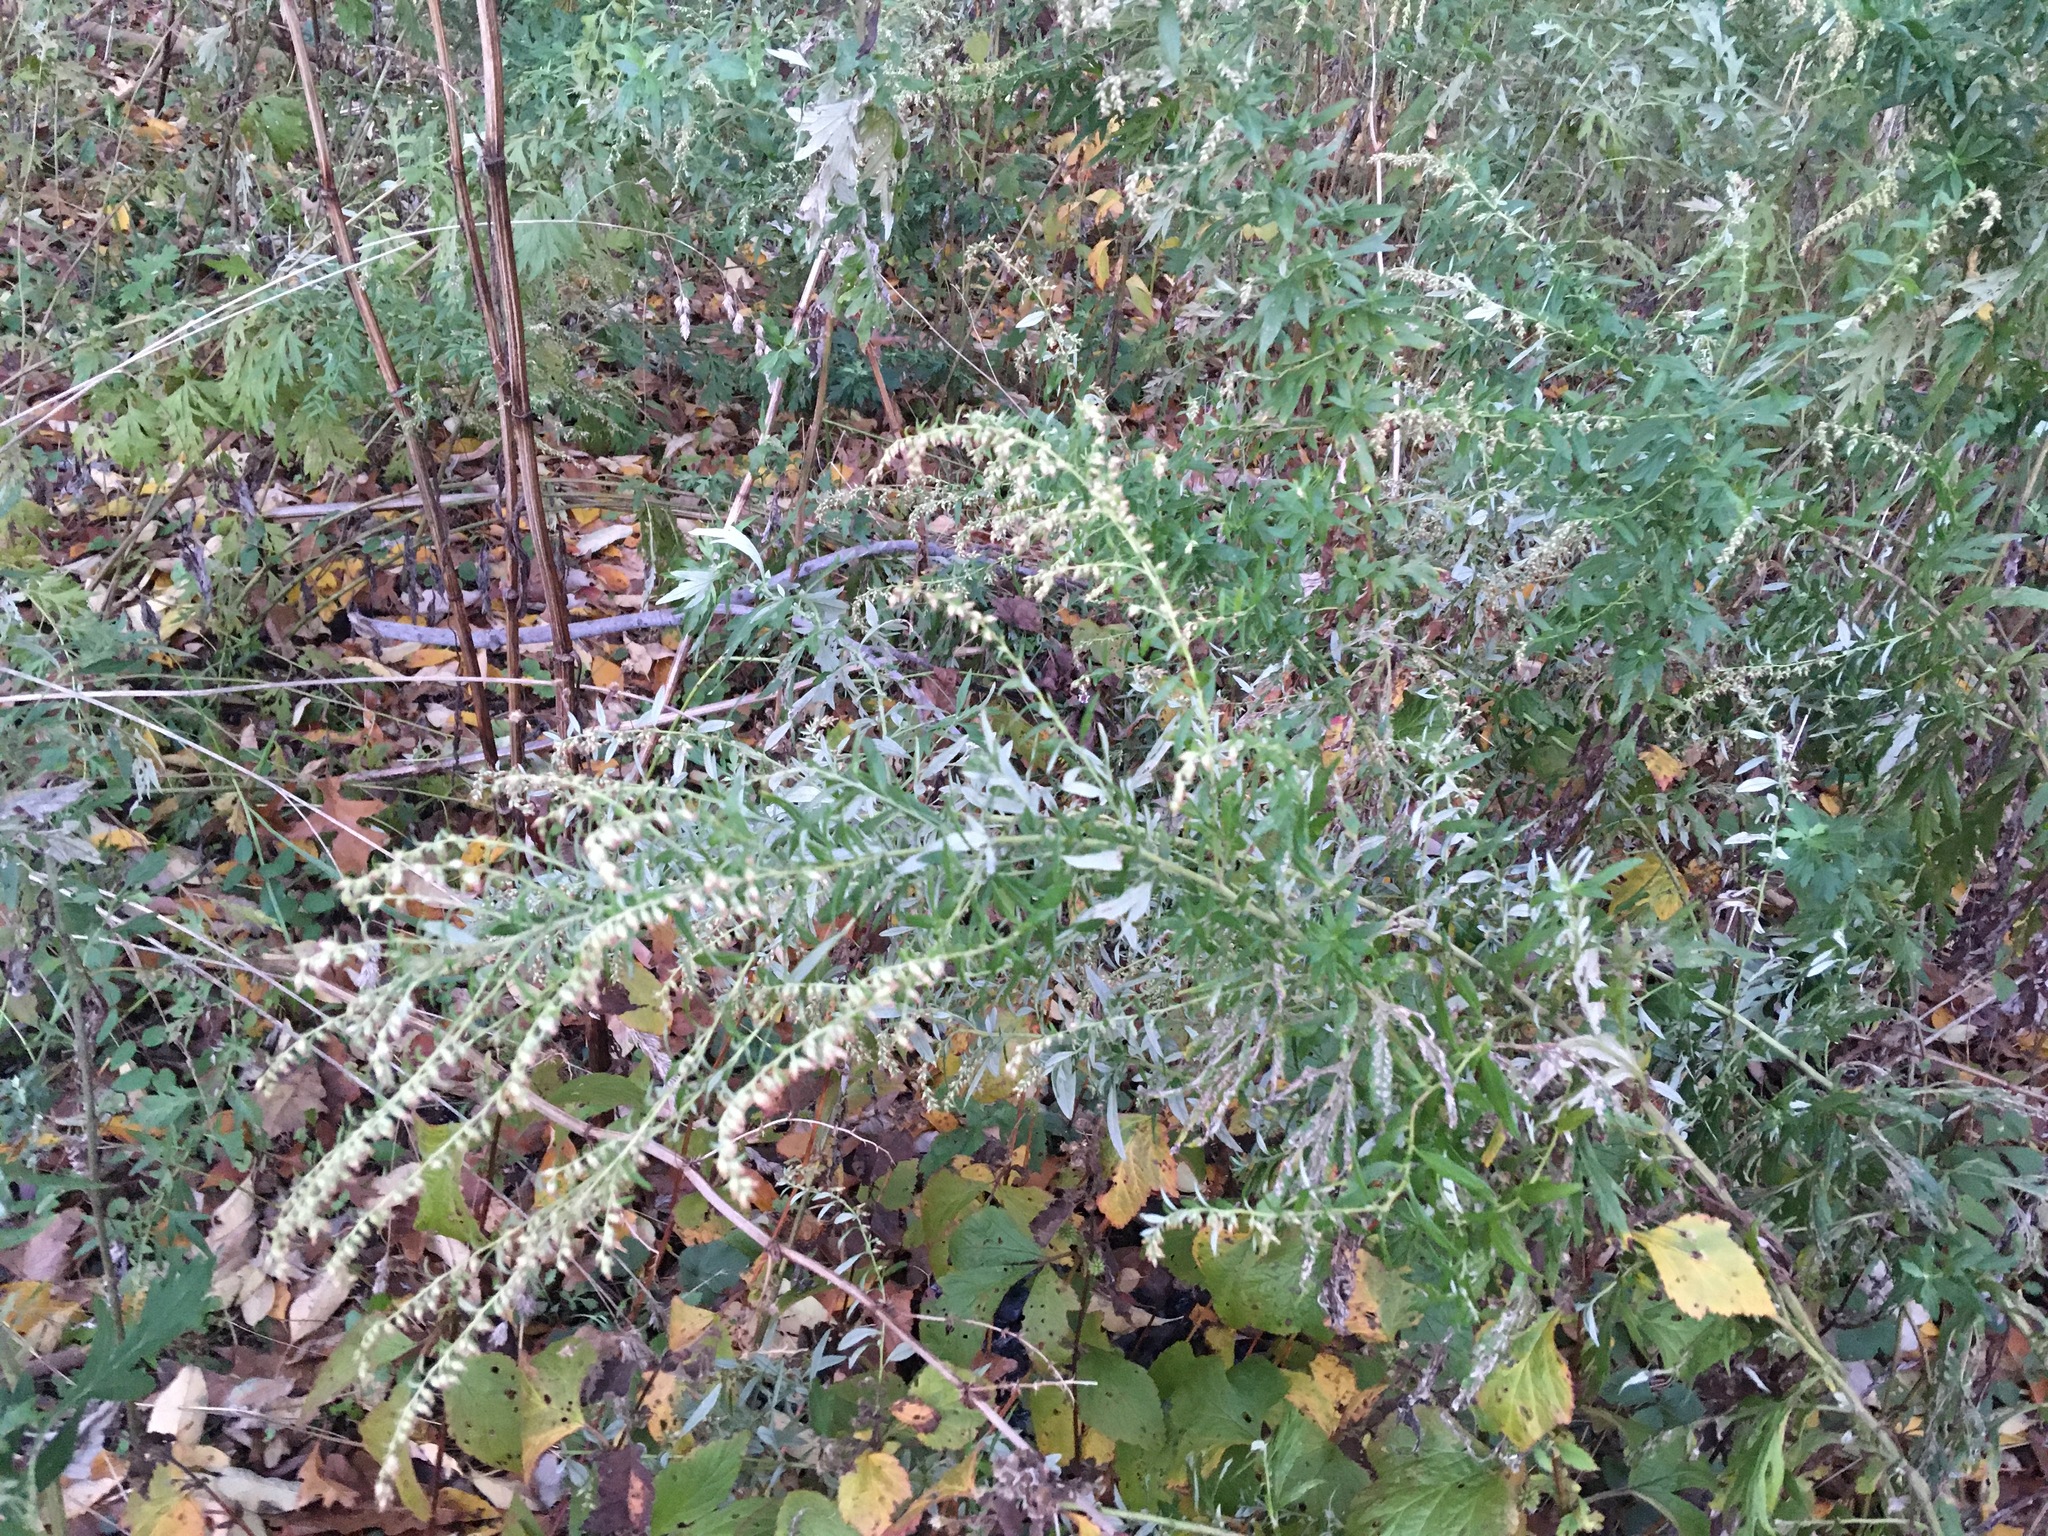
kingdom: Plantae
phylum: Tracheophyta
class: Magnoliopsida
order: Asterales
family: Asteraceae
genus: Artemisia
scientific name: Artemisia vulgaris
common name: Mugwort
